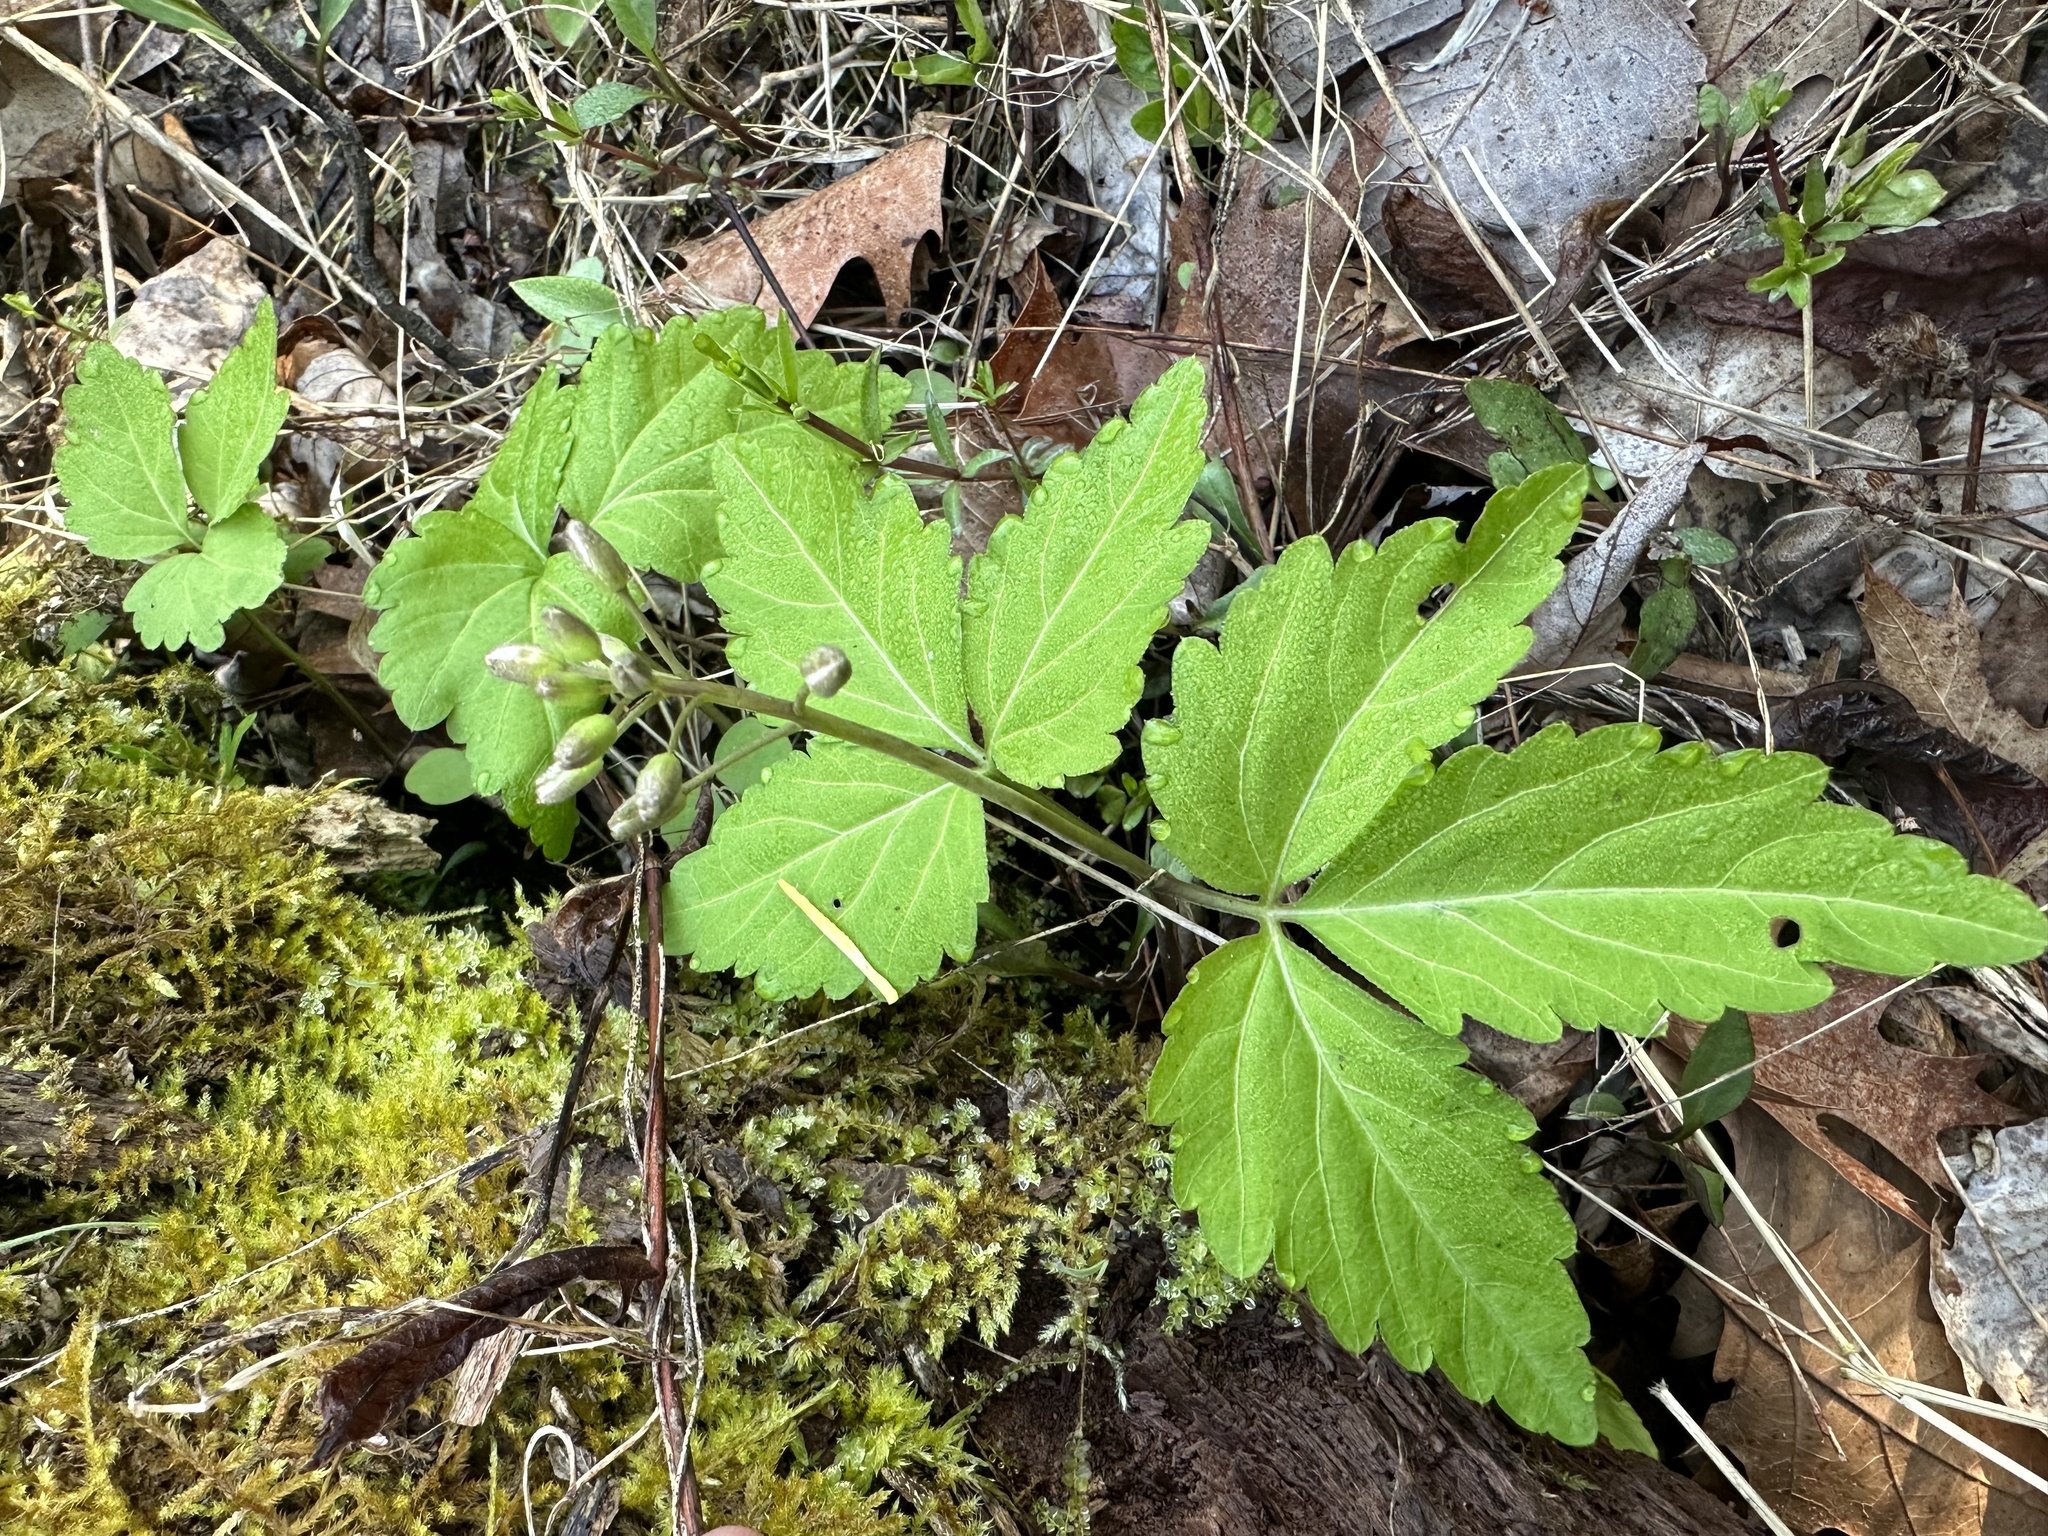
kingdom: Plantae
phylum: Tracheophyta
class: Magnoliopsida
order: Brassicales
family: Brassicaceae
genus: Cardamine
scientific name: Cardamine diphylla
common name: Broad-leaved toothwort
